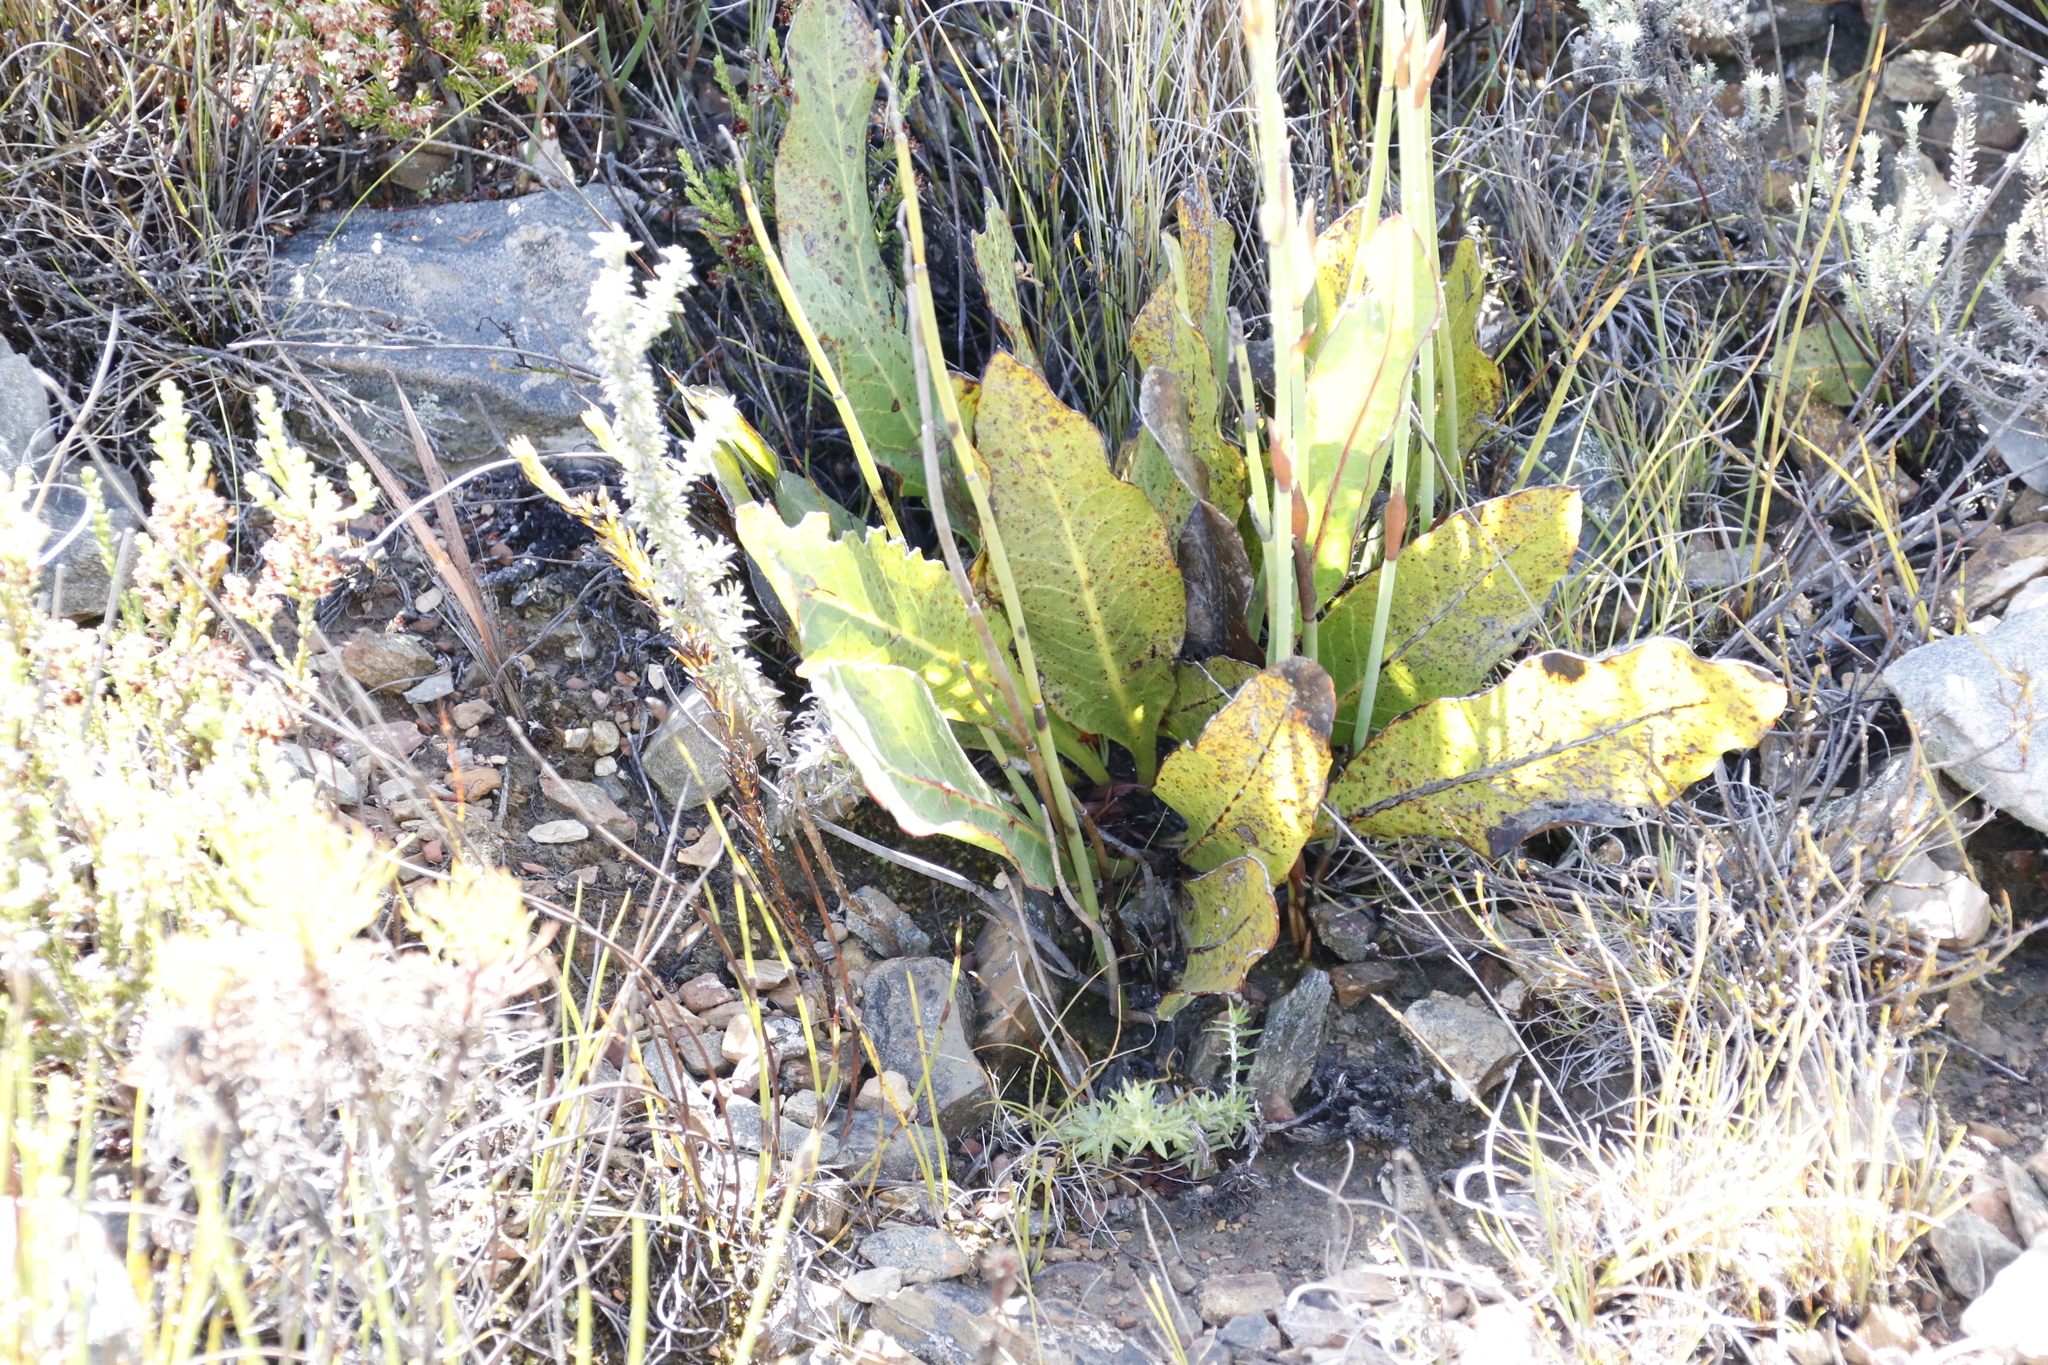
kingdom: Plantae
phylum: Tracheophyta
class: Magnoliopsida
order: Proteales
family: Proteaceae
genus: Protea
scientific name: Protea scolopendriifolia
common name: Harts-tongue-fern sugarbush
